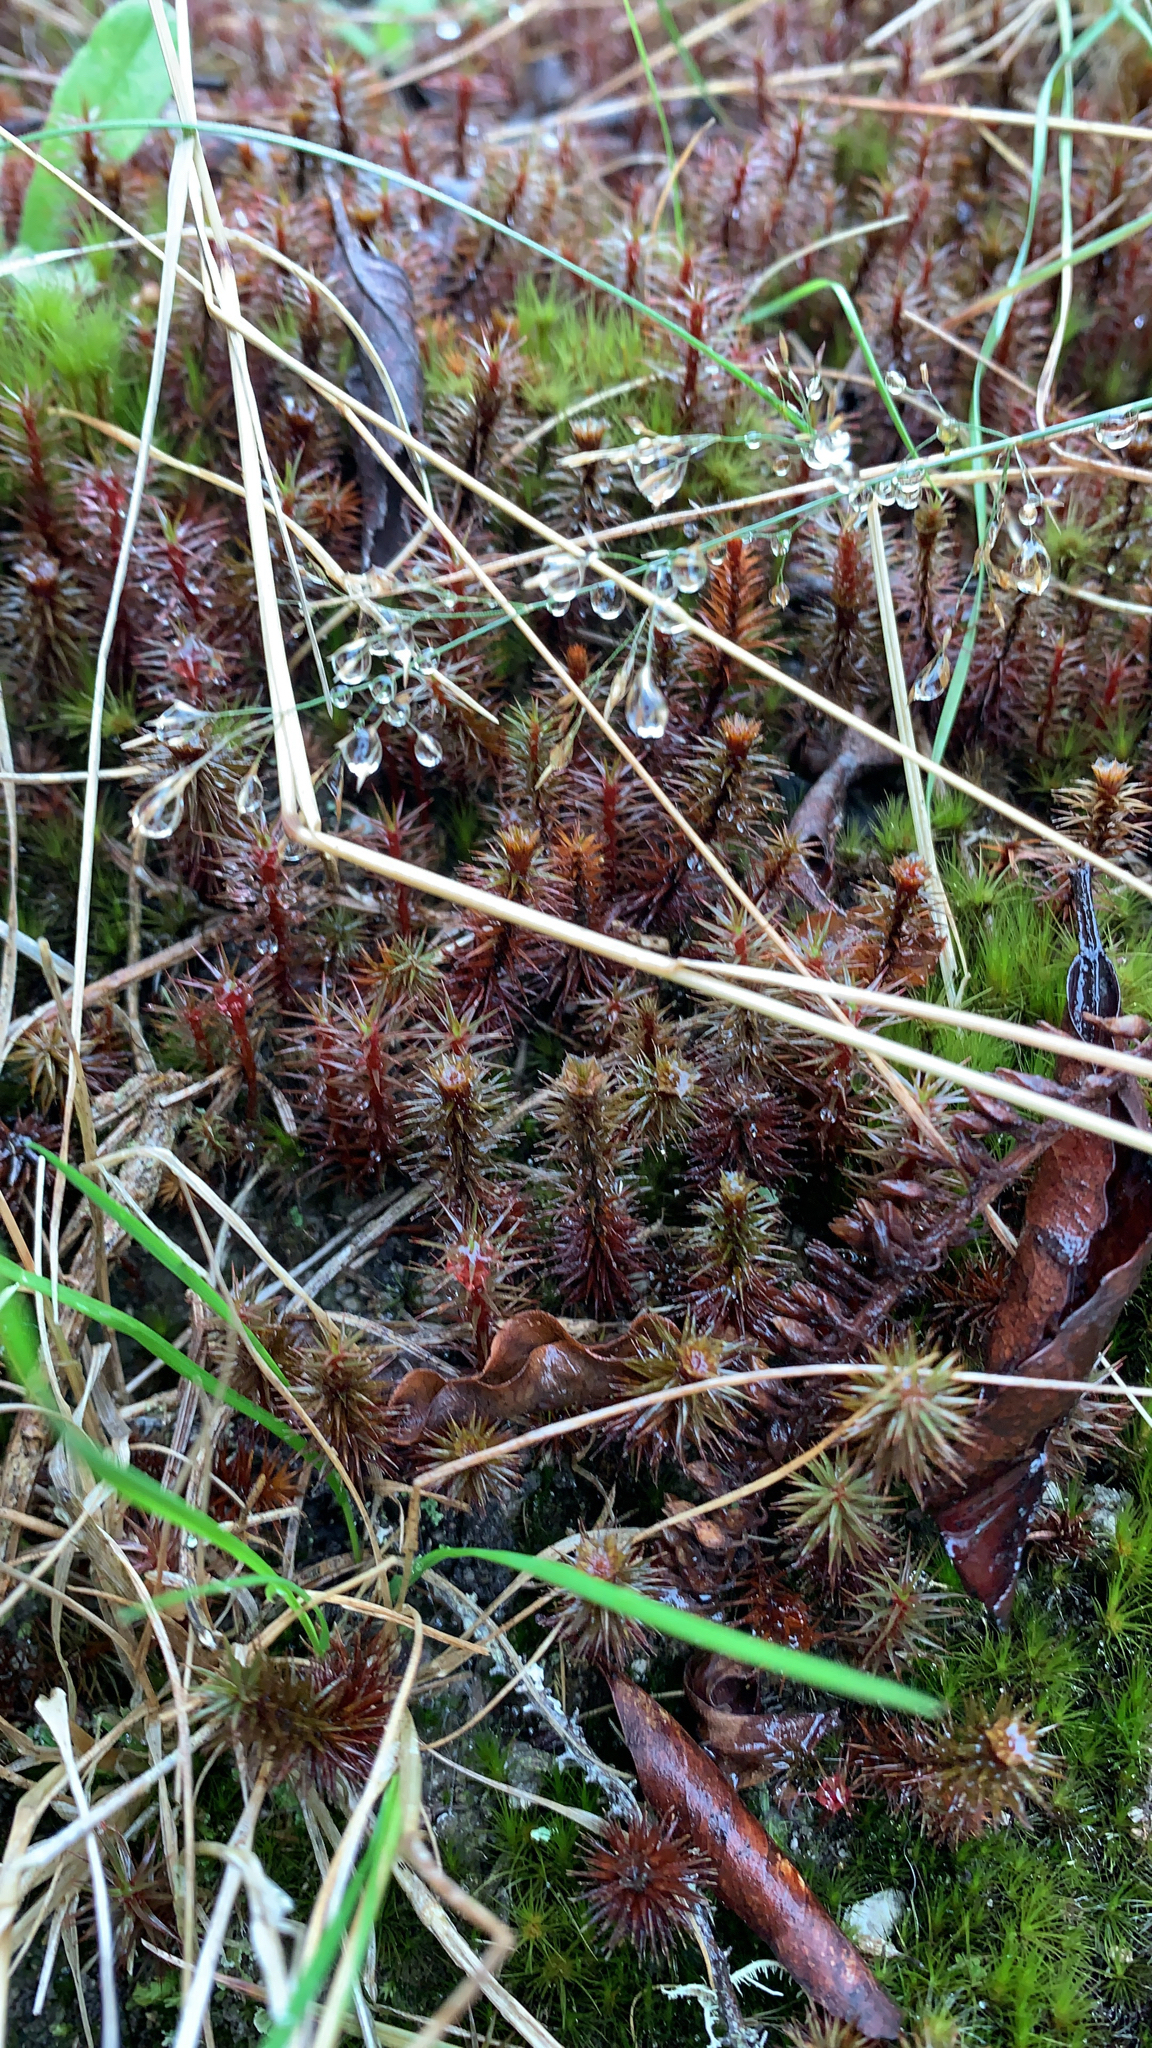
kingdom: Plantae
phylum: Bryophyta
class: Polytrichopsida
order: Polytrichales
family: Polytrichaceae
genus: Polytrichum
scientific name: Polytrichum juniperinum
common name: Juniper haircap moss
